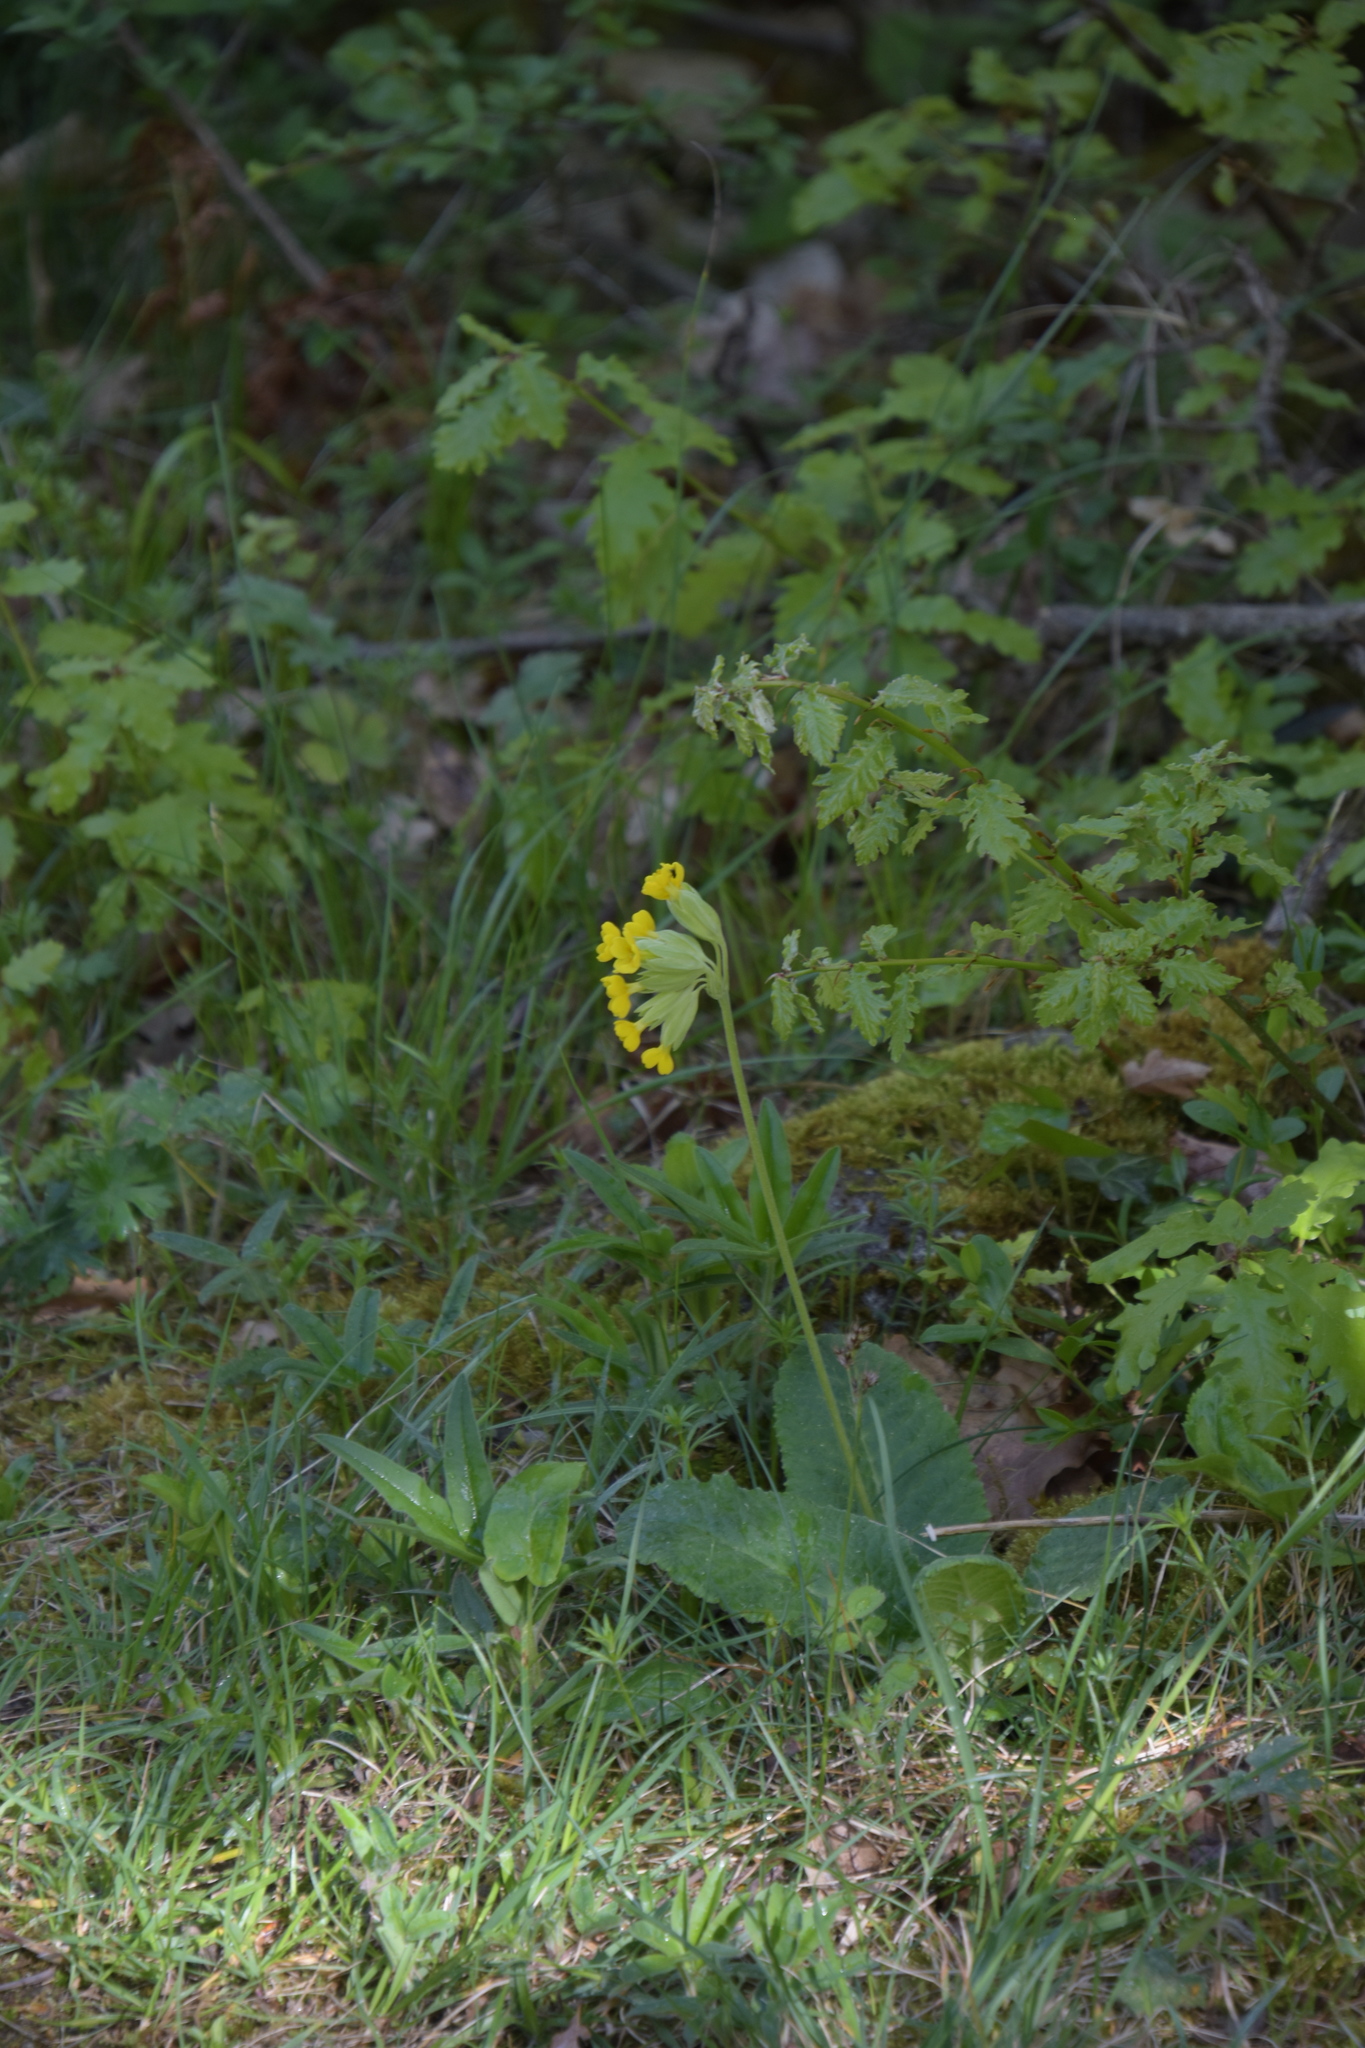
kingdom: Plantae
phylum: Tracheophyta
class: Magnoliopsida
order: Ericales
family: Primulaceae
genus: Primula
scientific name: Primula veris
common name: Cowslip
